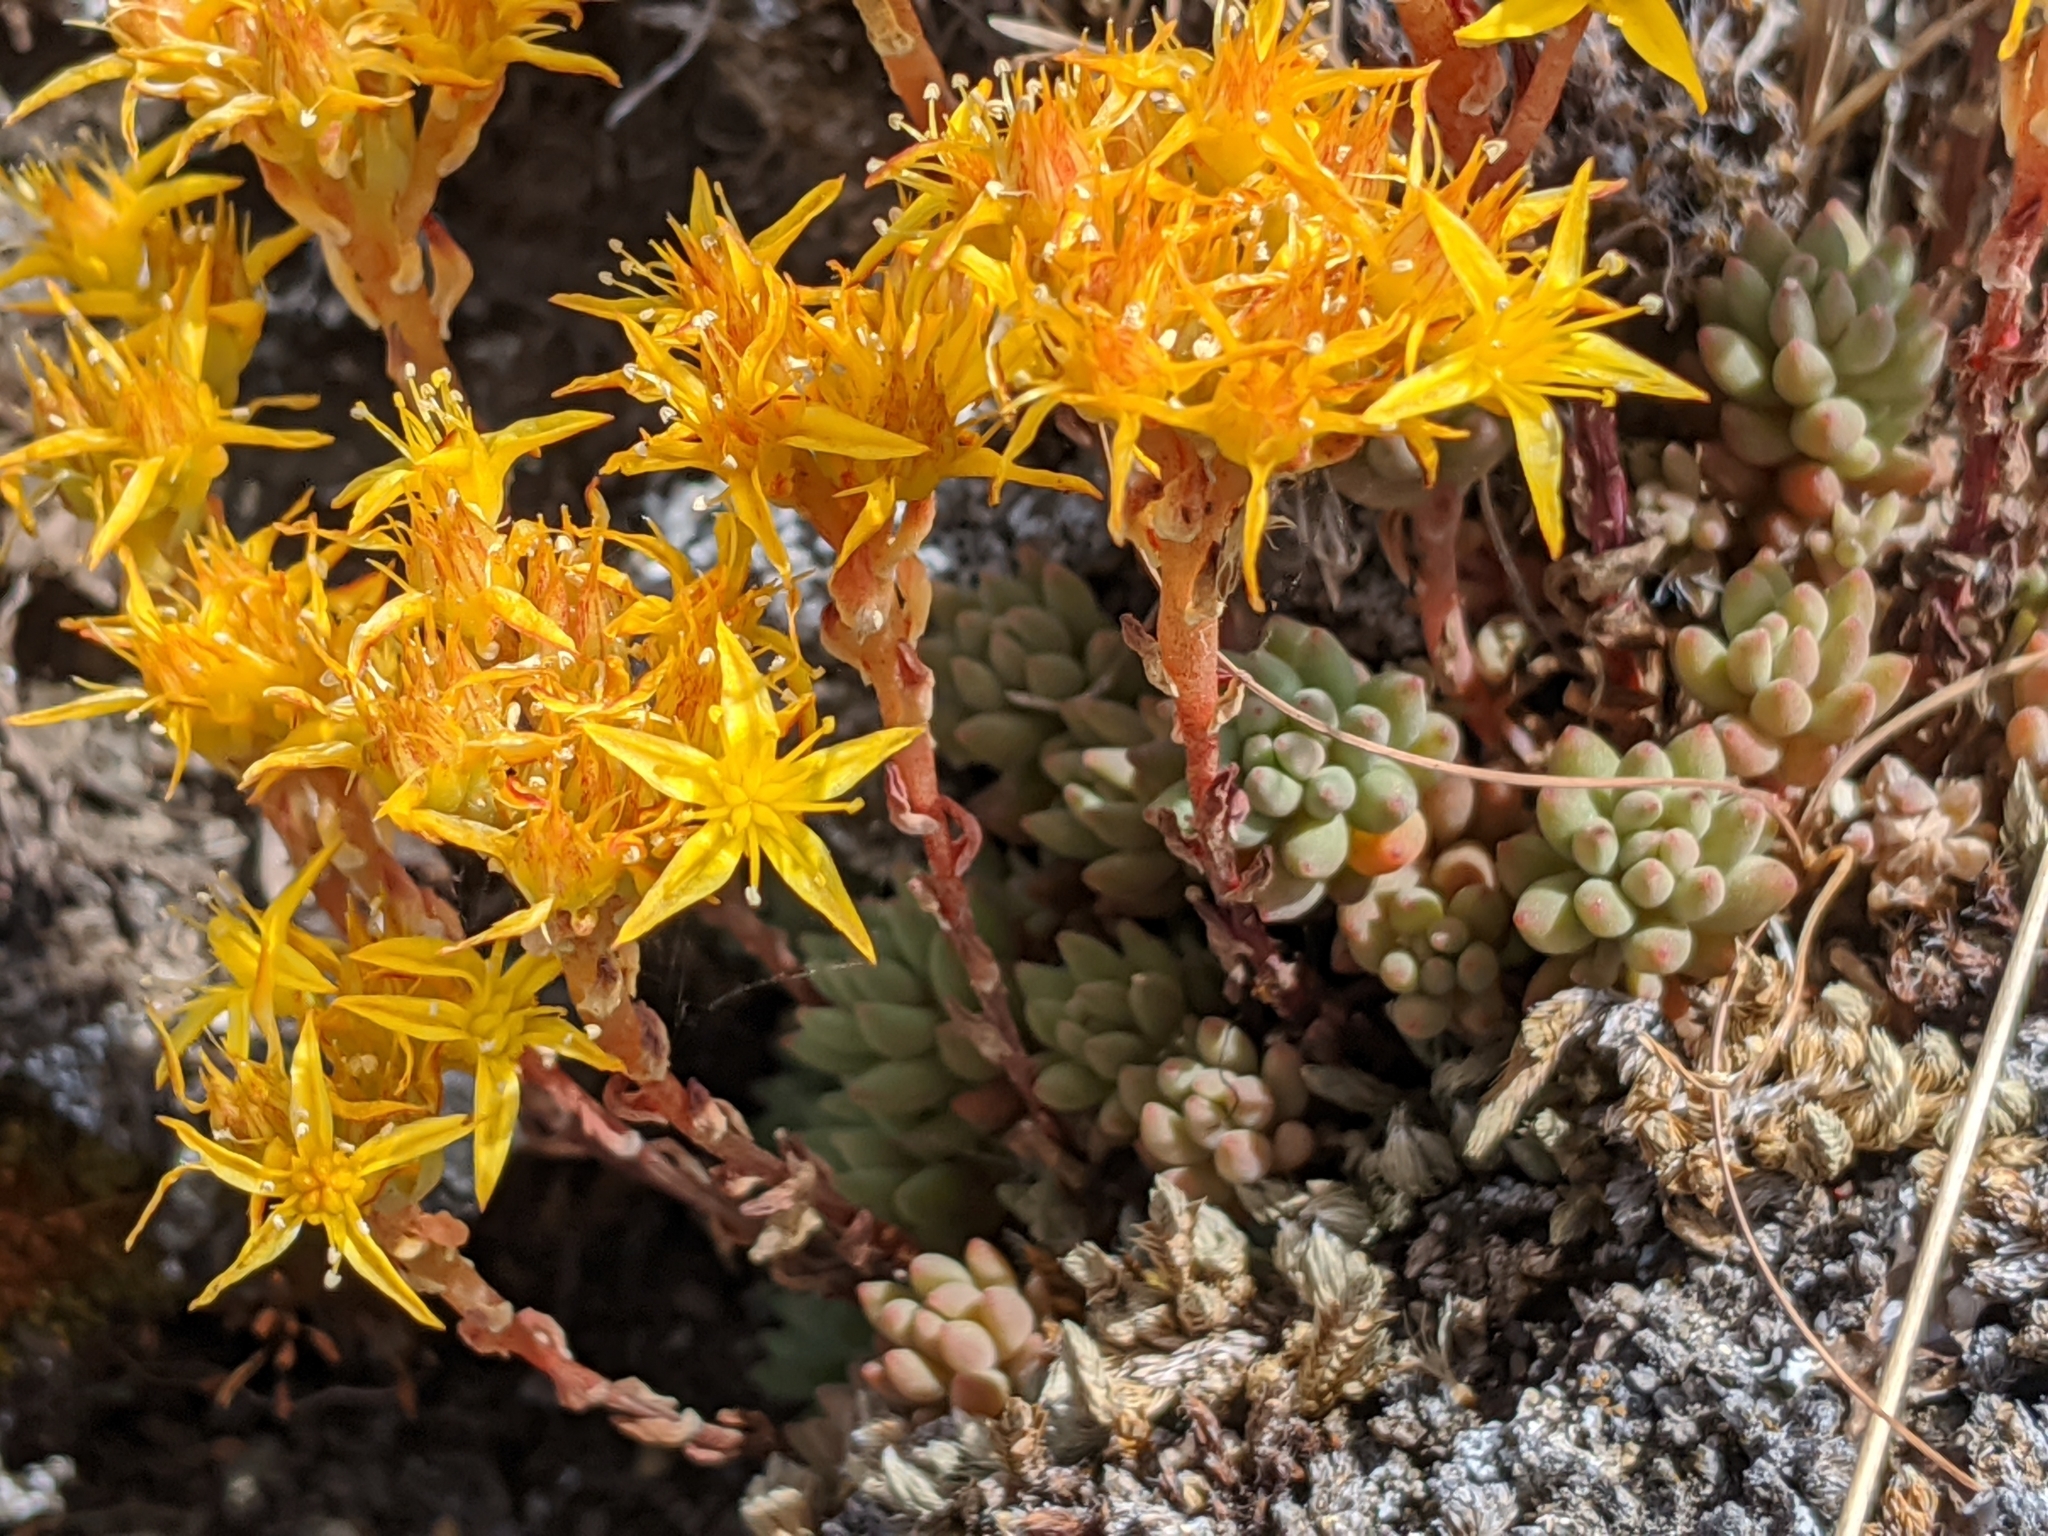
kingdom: Plantae
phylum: Tracheophyta
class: Magnoliopsida
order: Saxifragales
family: Crassulaceae
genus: Sedum
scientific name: Sedum lanceolatum
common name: Common stonecrop
